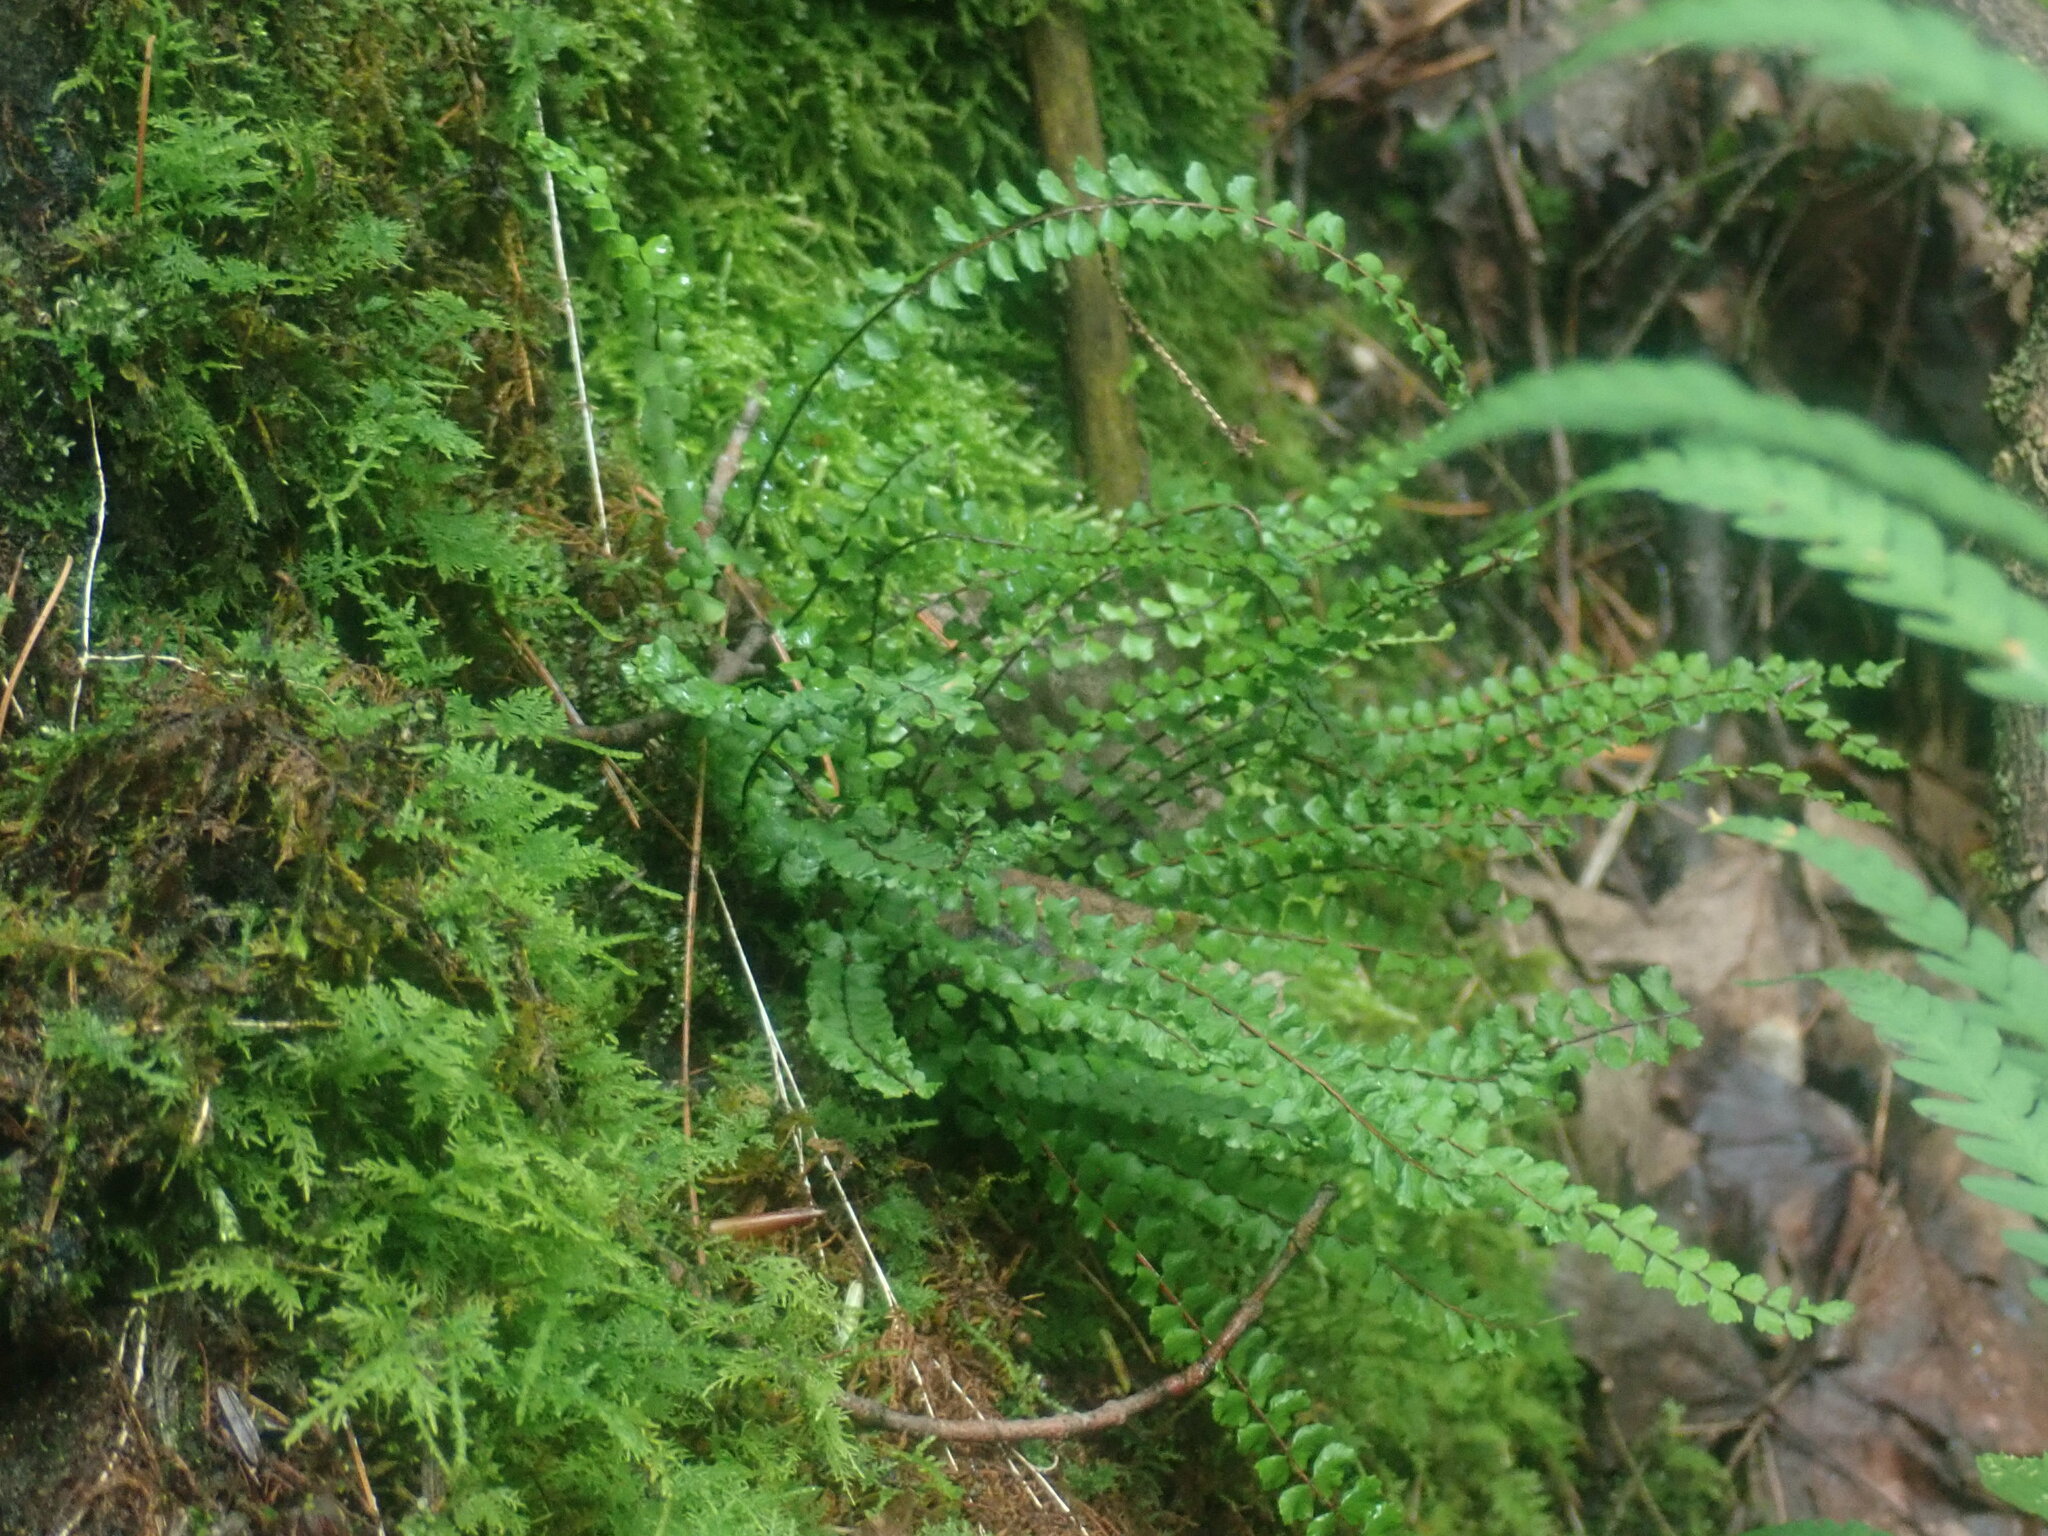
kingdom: Plantae
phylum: Tracheophyta
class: Polypodiopsida
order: Polypodiales
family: Aspleniaceae
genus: Asplenium
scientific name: Asplenium trichomanes
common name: Maidenhair spleenwort
